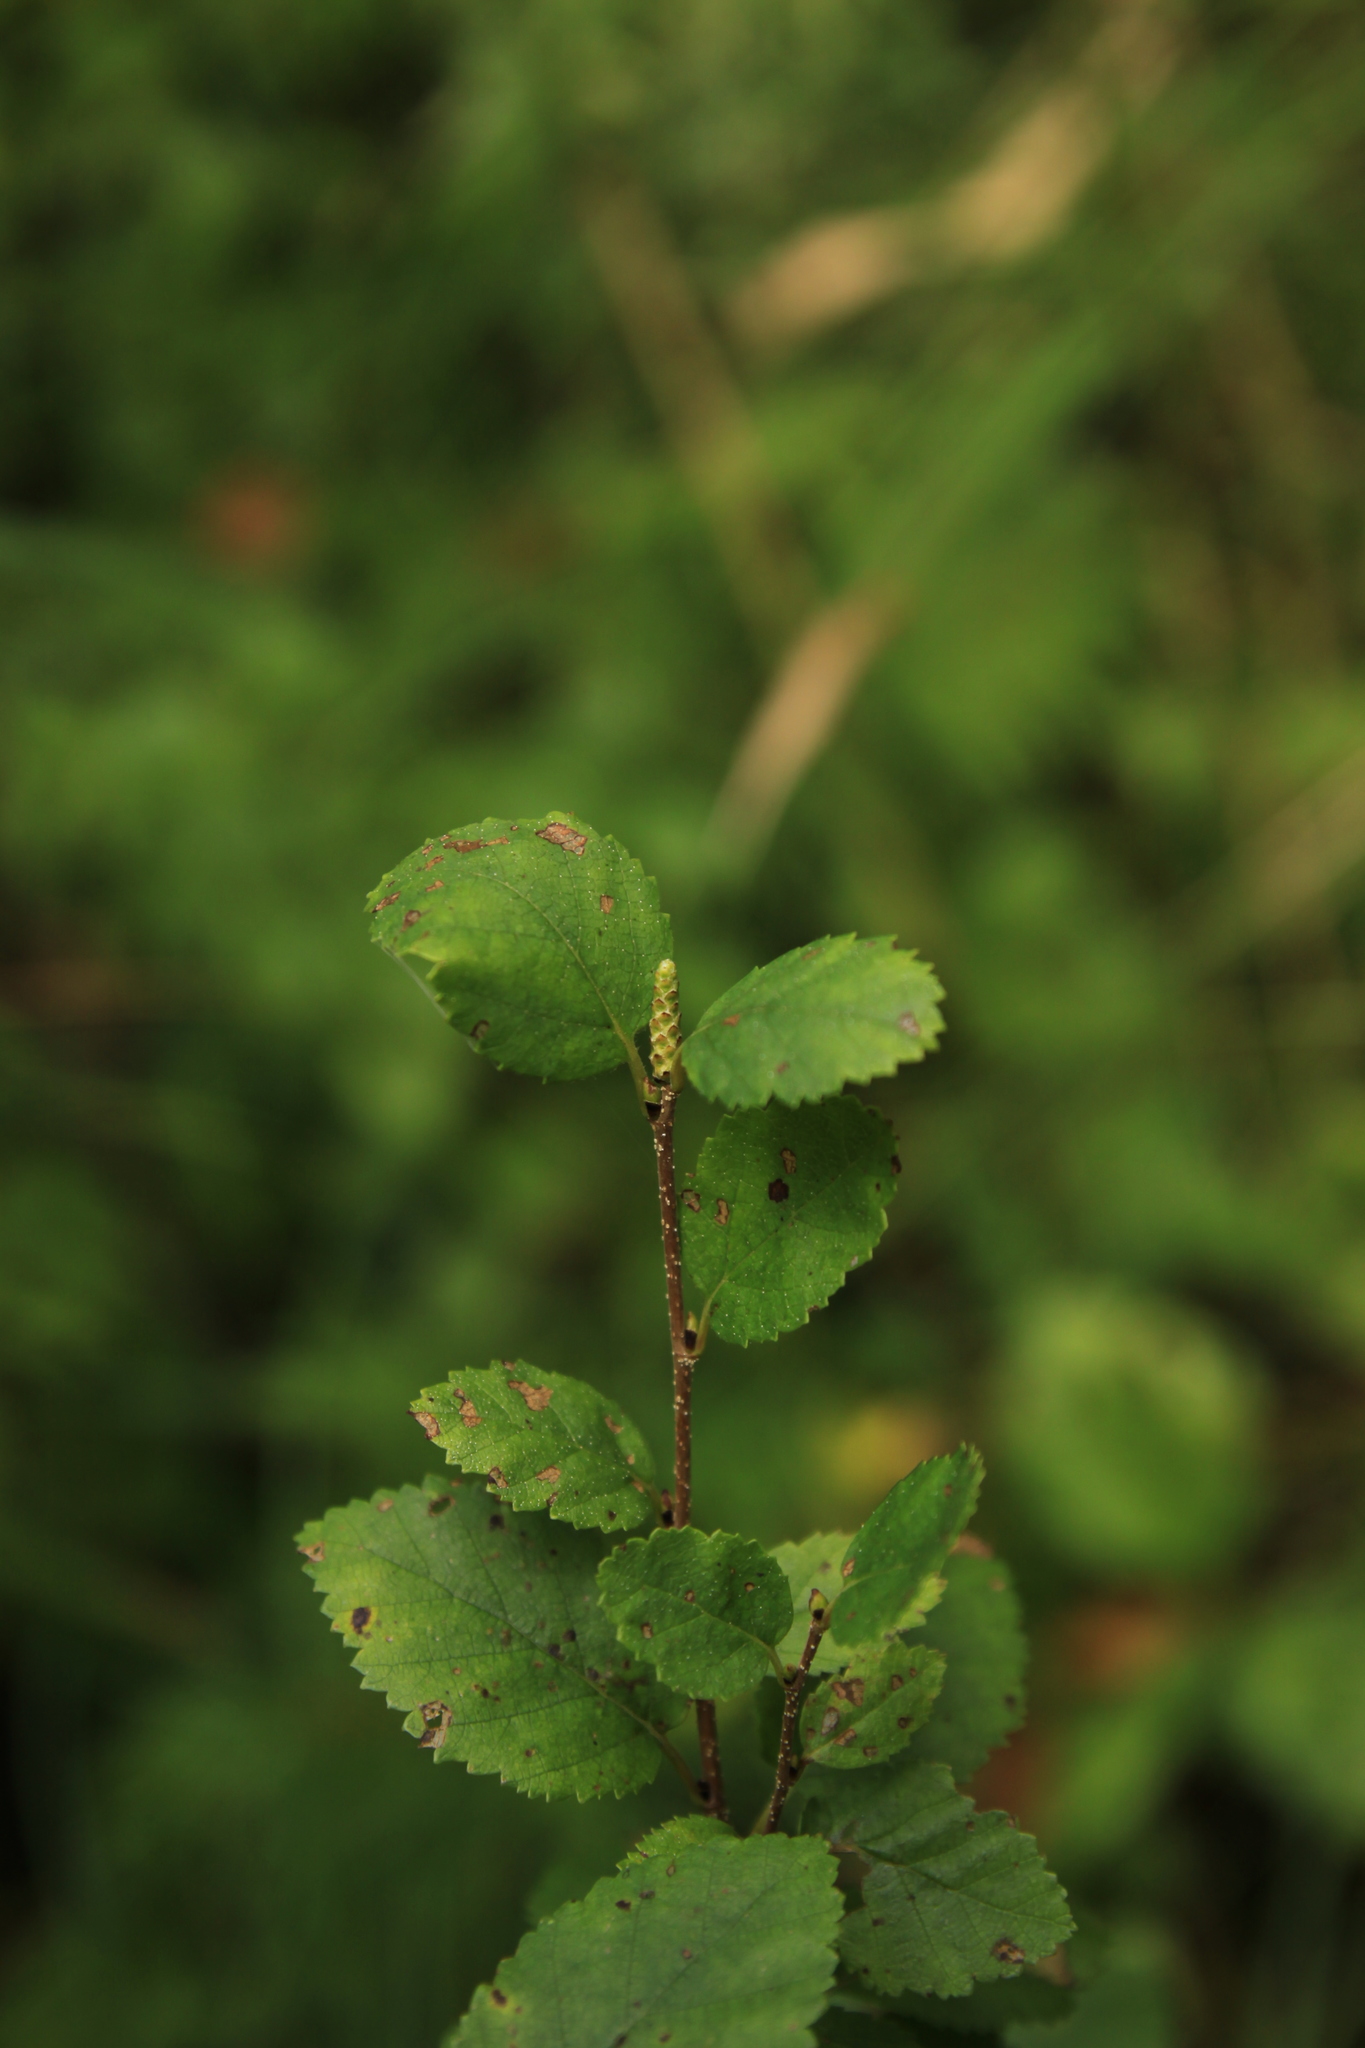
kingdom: Plantae
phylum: Tracheophyta
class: Magnoliopsida
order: Fagales
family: Betulaceae
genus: Betula
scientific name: Betula humilis
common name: Shrubby birch
